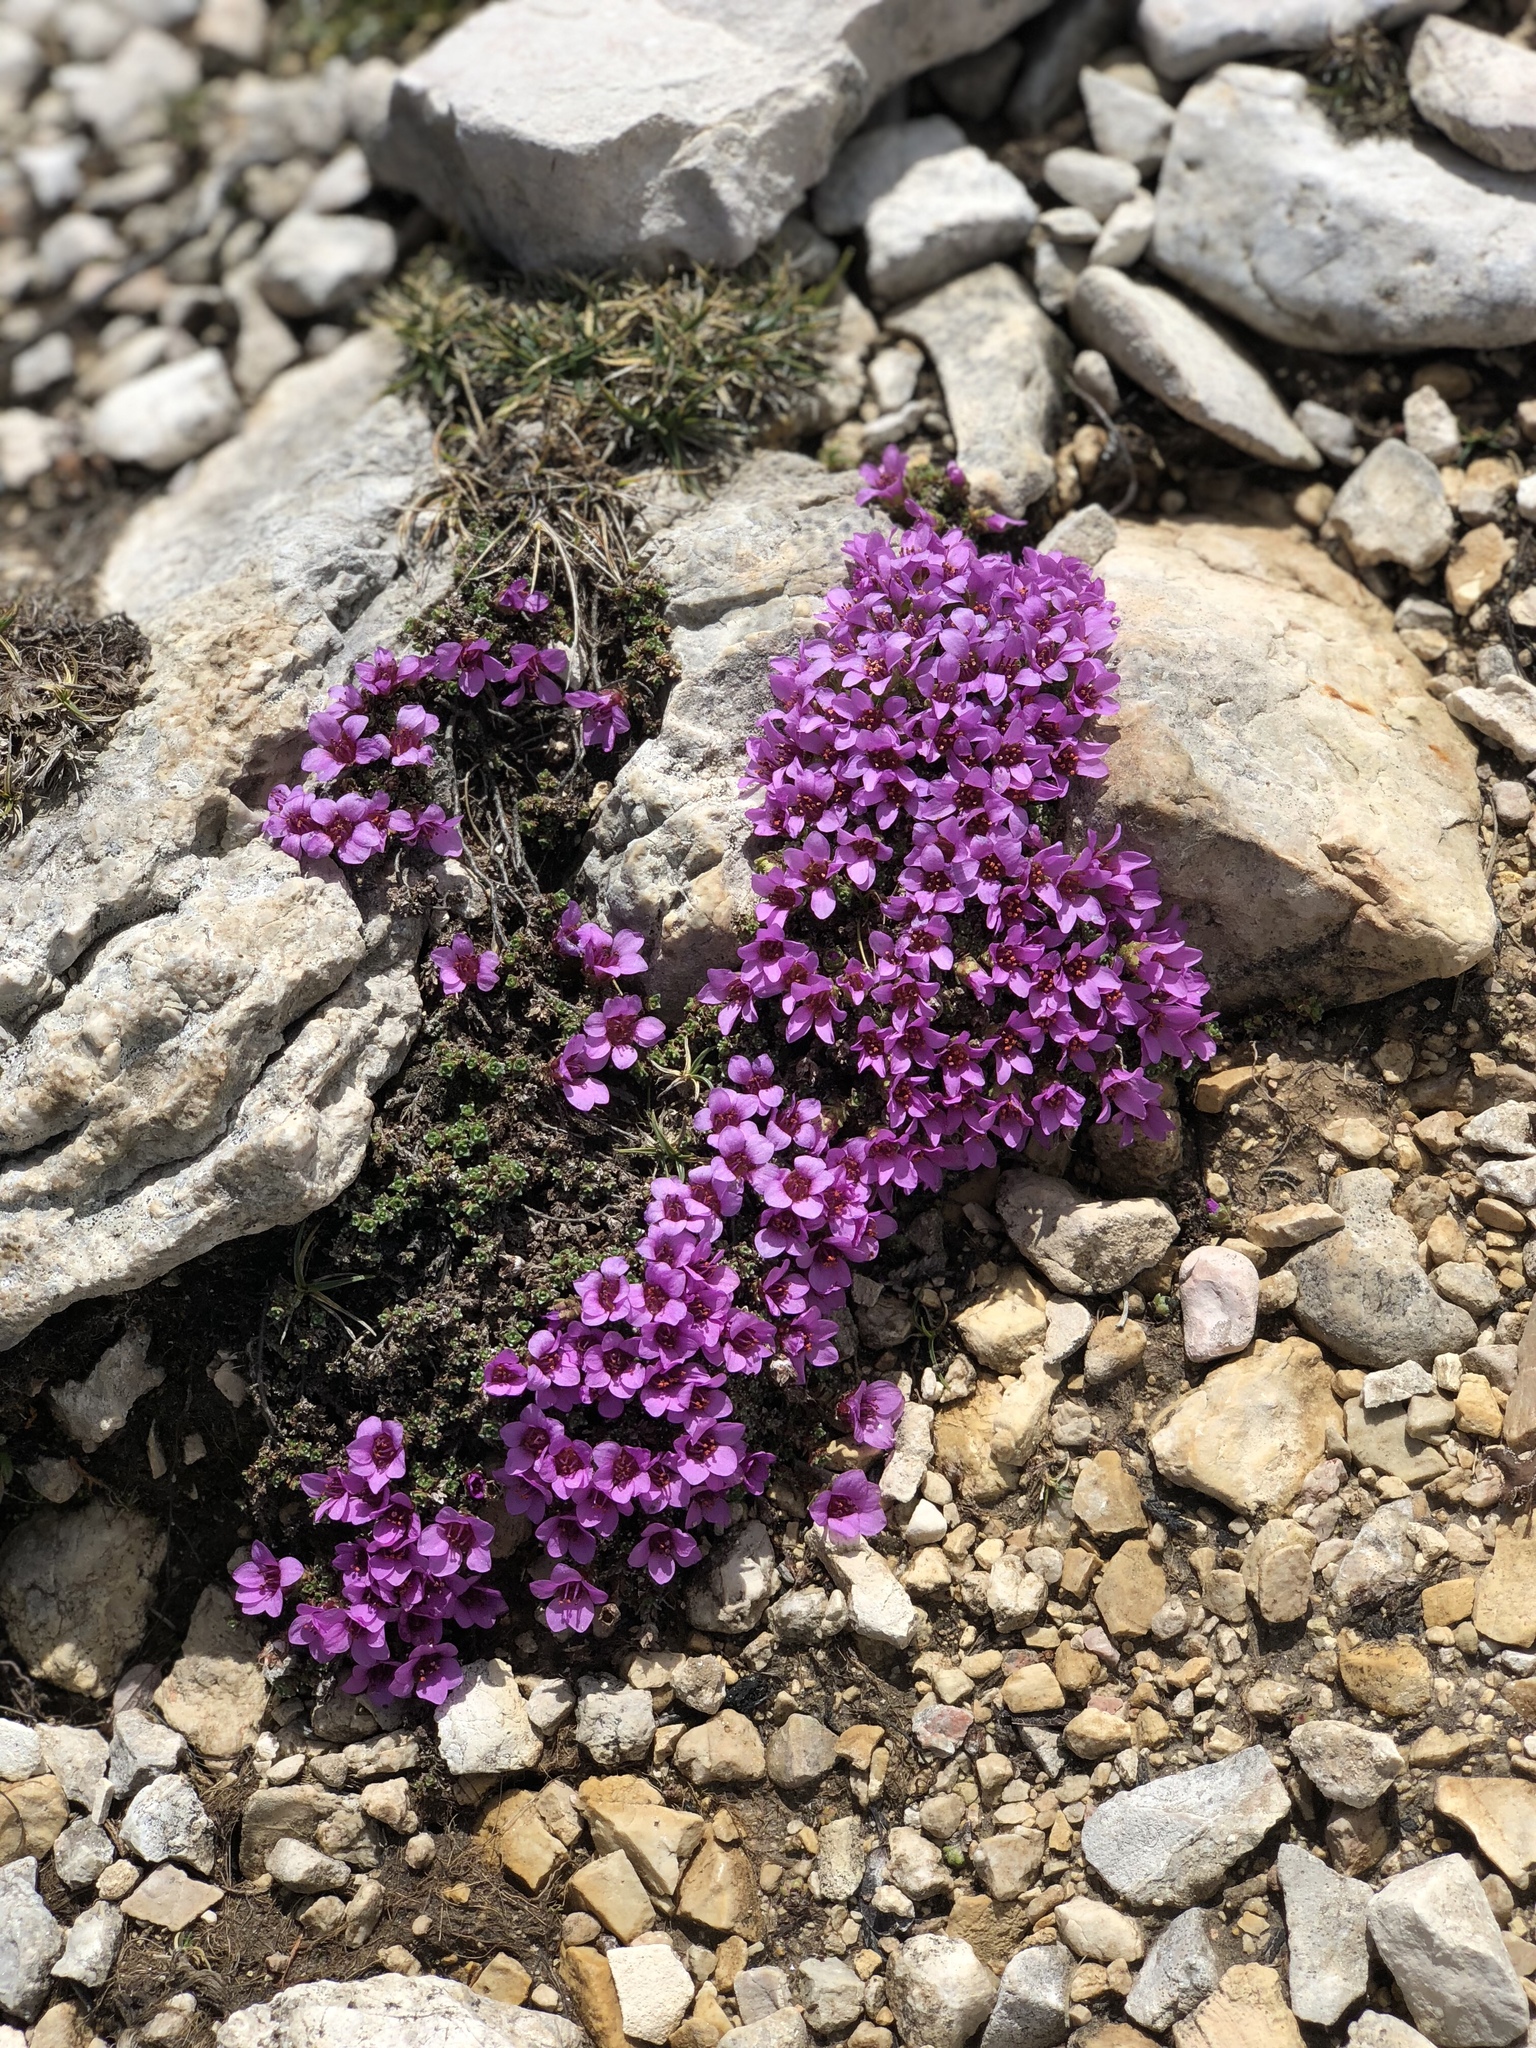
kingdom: Plantae
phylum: Tracheophyta
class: Magnoliopsida
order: Saxifragales
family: Saxifragaceae
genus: Saxifraga
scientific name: Saxifraga oppositifolia
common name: Purple saxifrage
